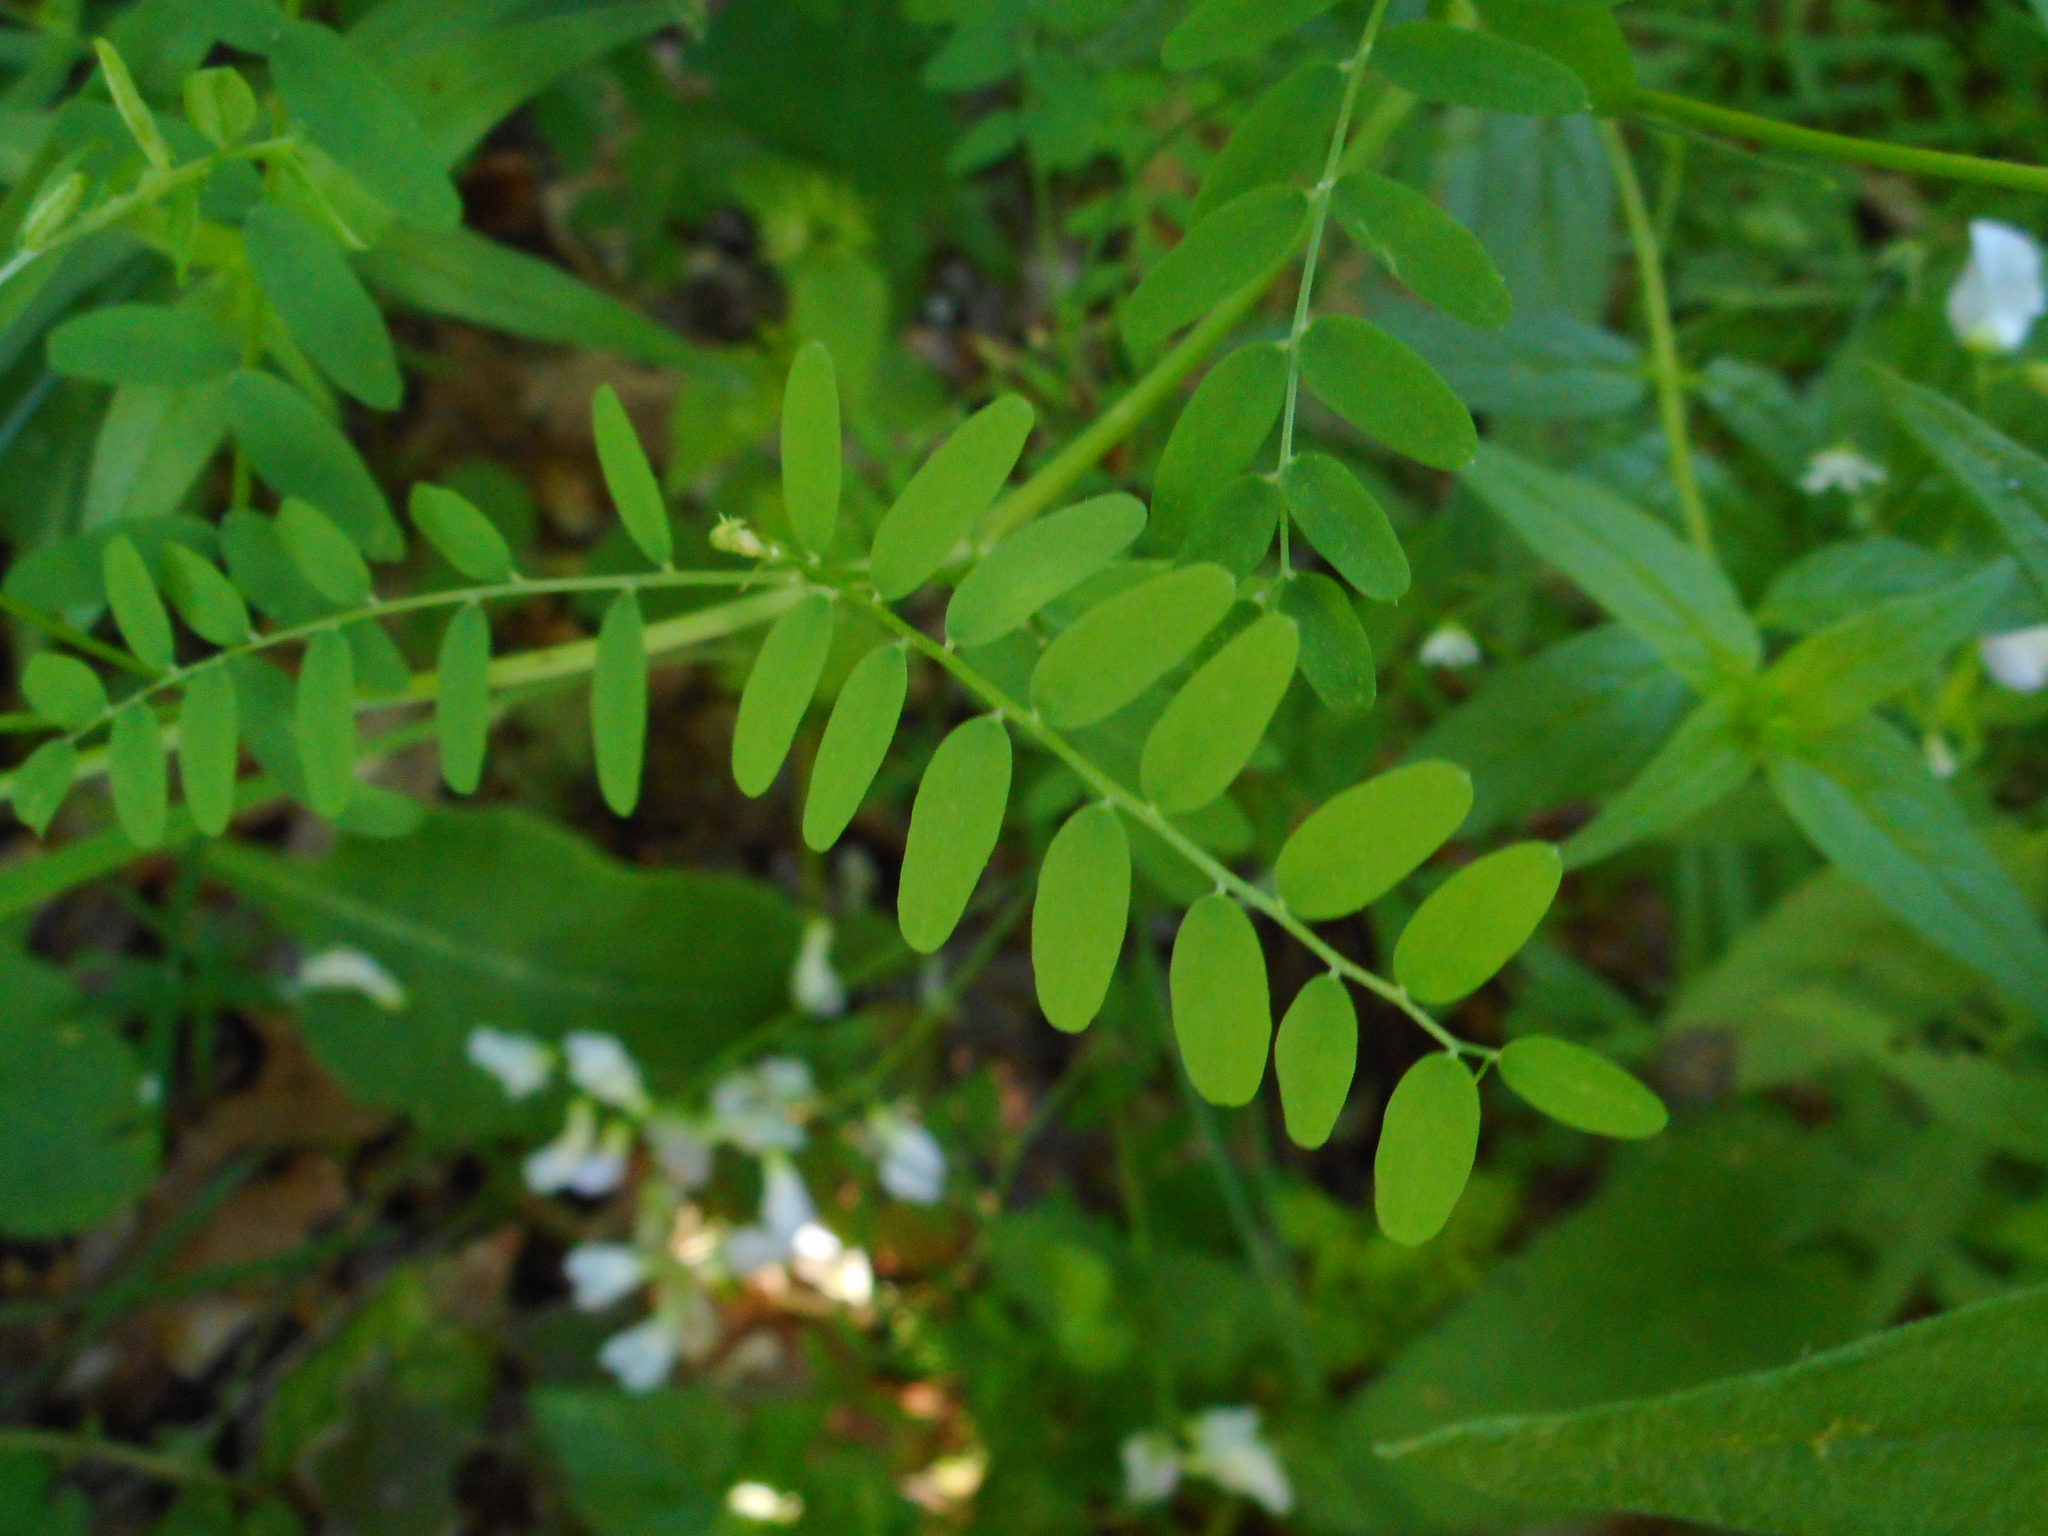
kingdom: Plantae
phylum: Tracheophyta
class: Magnoliopsida
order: Fabales
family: Fabaceae
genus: Vicia
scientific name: Vicia sylvatica
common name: Wood vetch
